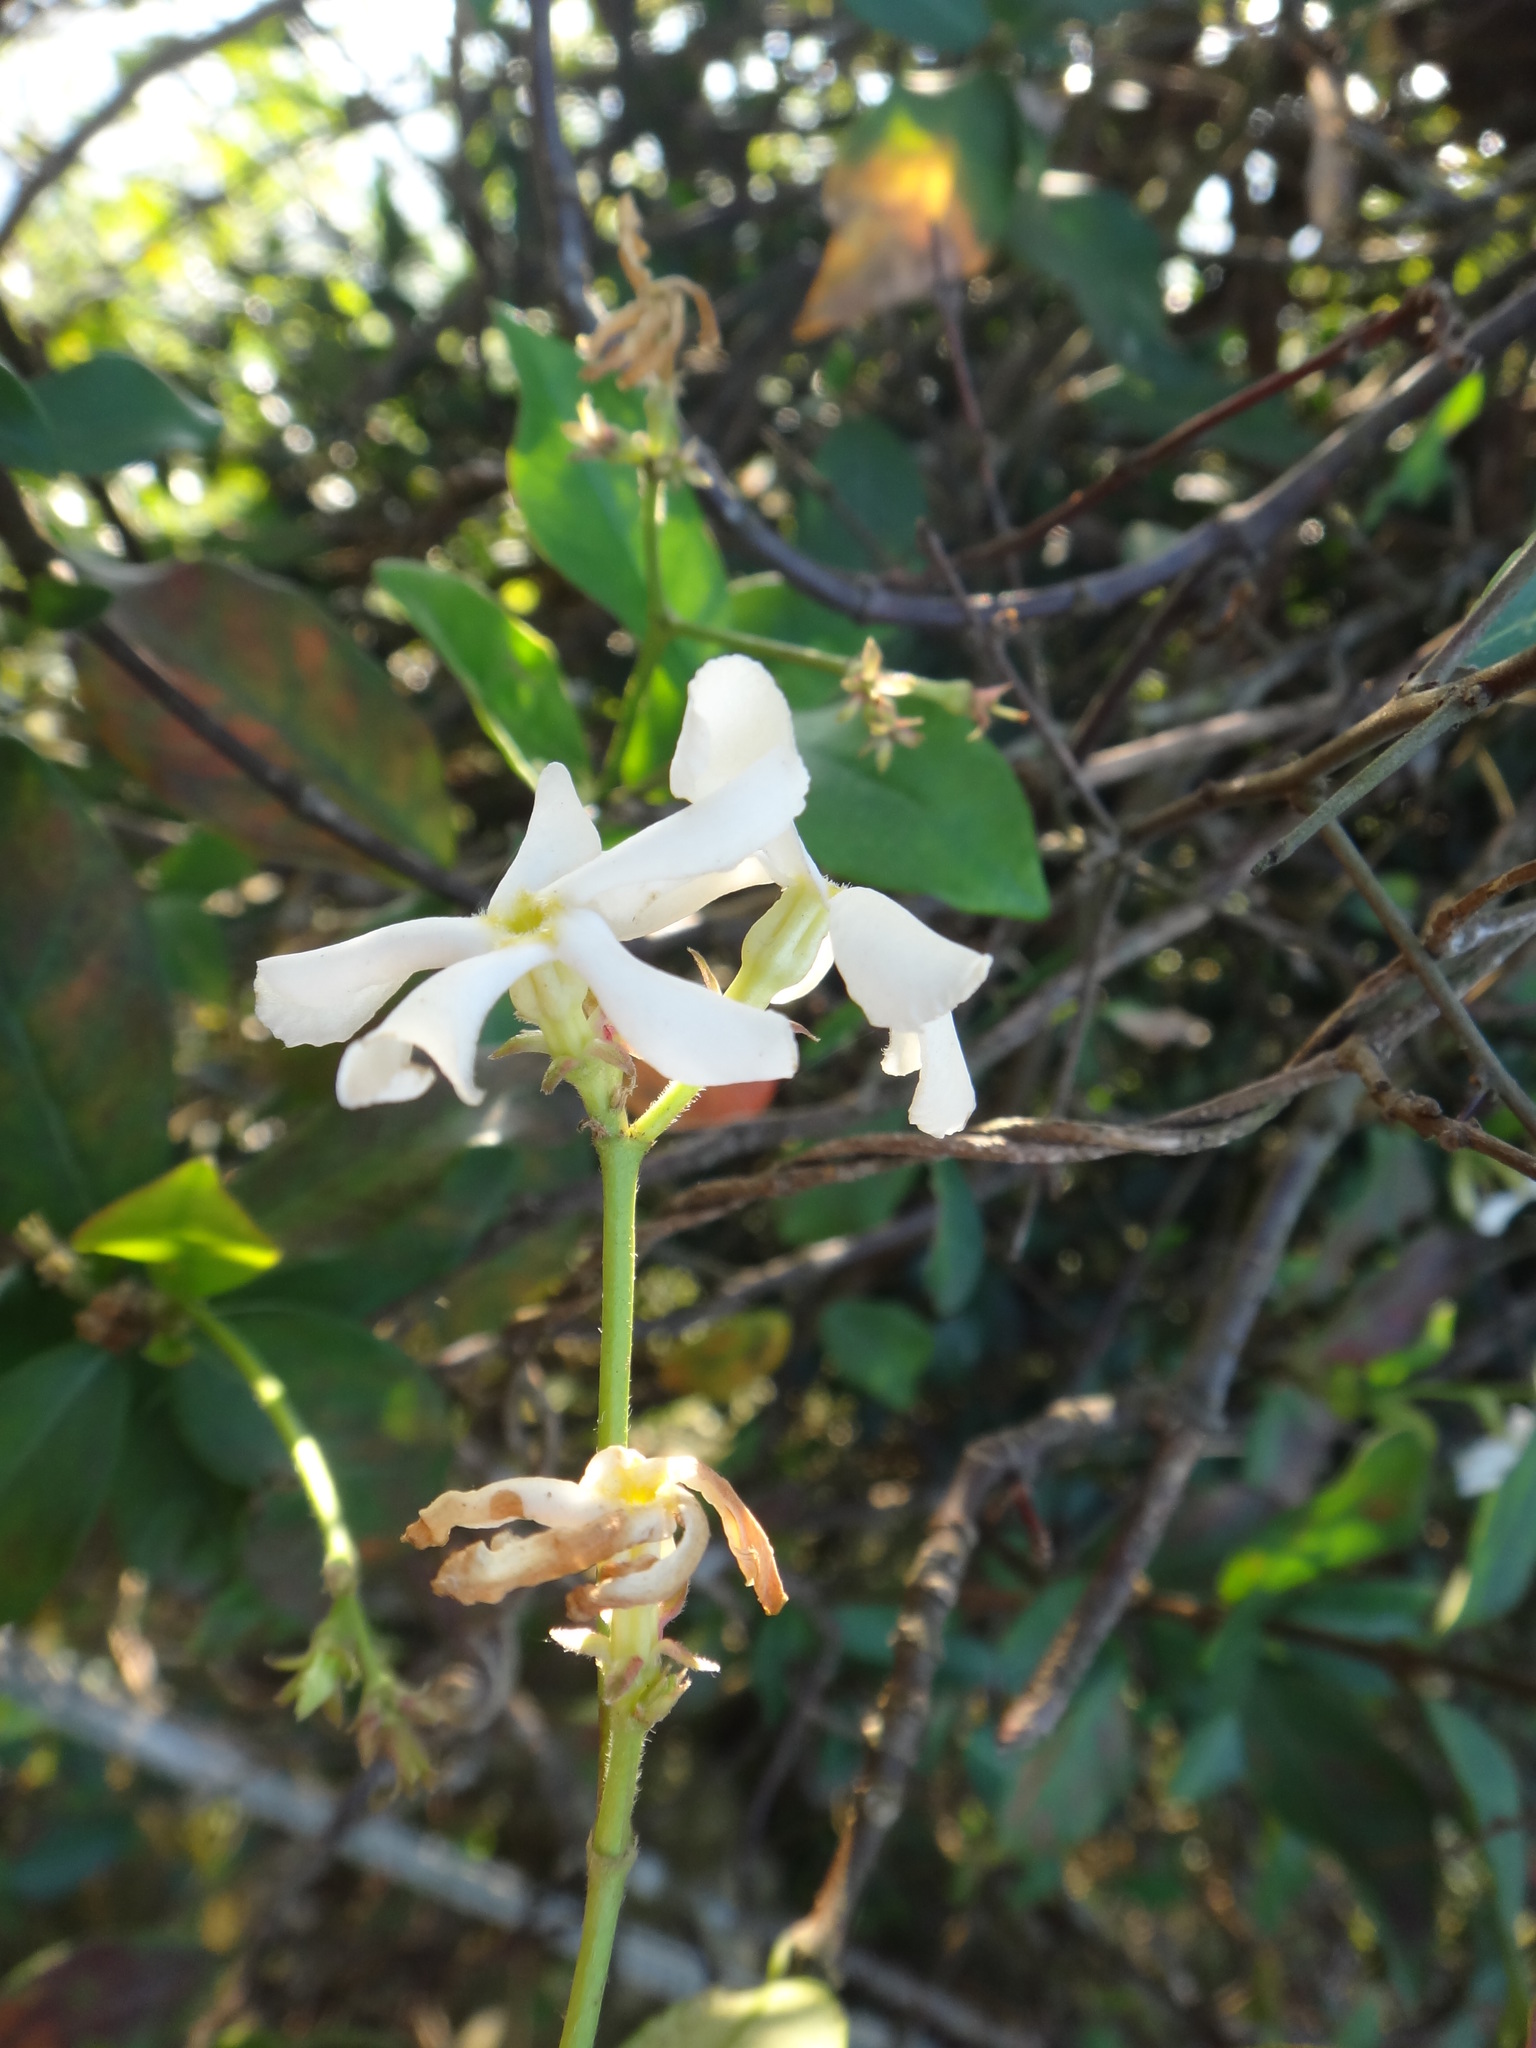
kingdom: Plantae
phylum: Tracheophyta
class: Magnoliopsida
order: Gentianales
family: Apocynaceae
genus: Trachelospermum
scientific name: Trachelospermum jasminoides
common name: Confederate jasmine
